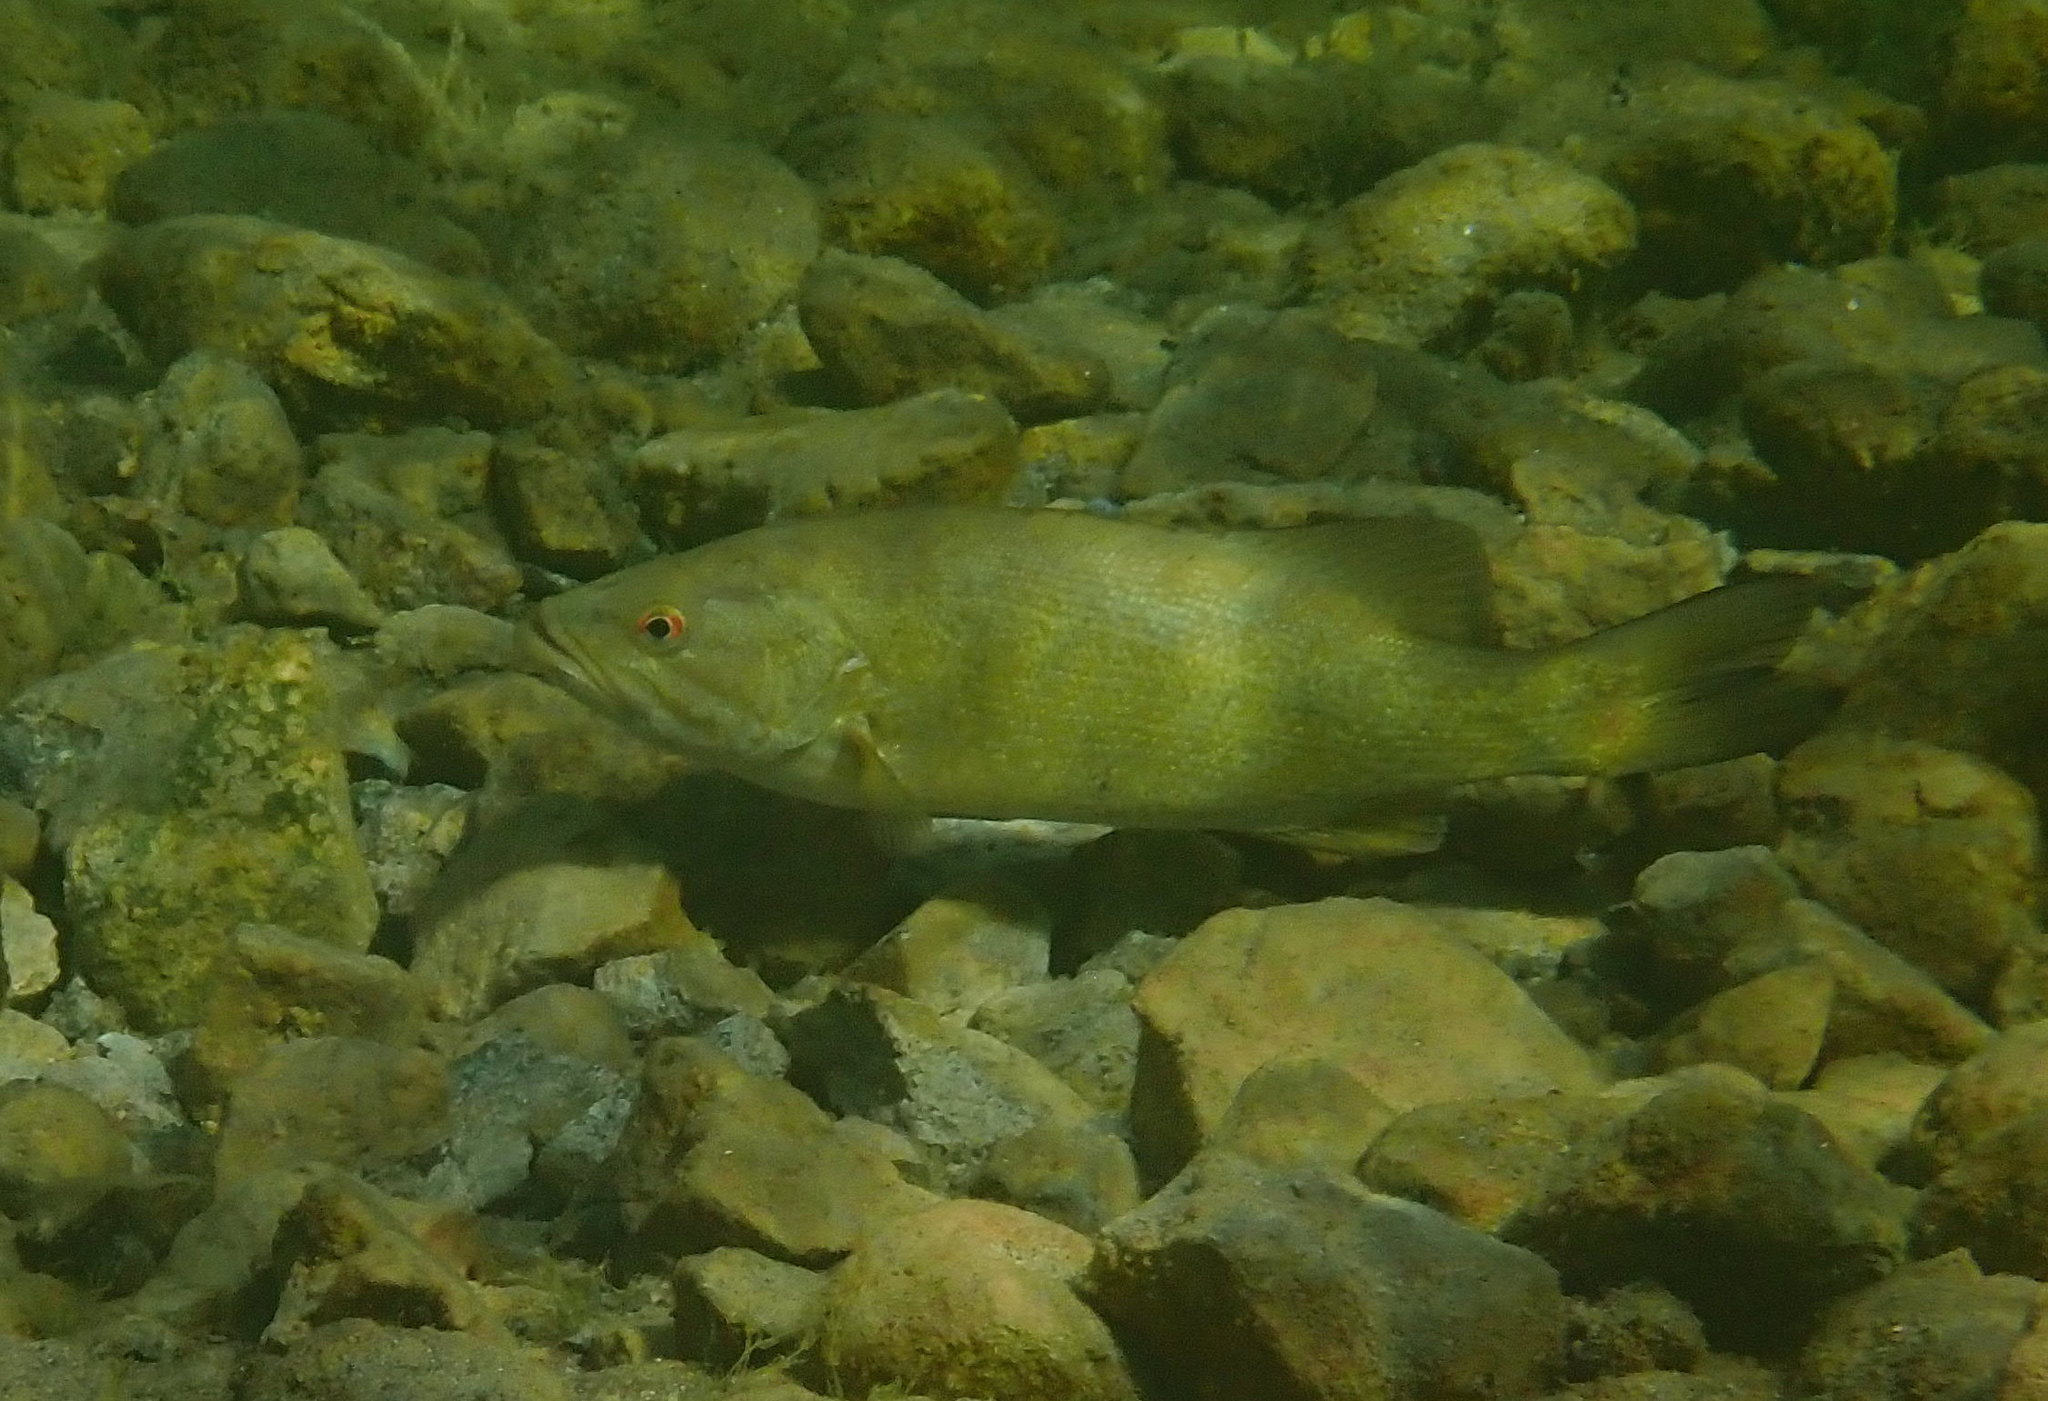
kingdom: Animalia
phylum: Chordata
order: Perciformes
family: Centrarchidae
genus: Micropterus
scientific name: Micropterus dolomieu
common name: Smallmouth bass
